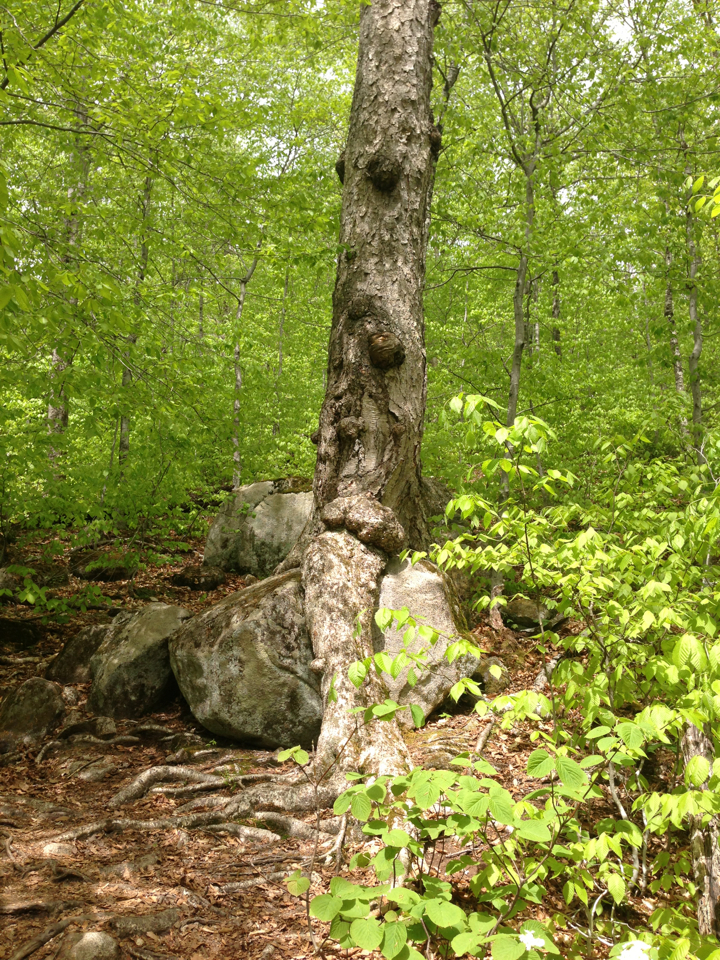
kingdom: Plantae
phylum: Tracheophyta
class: Magnoliopsida
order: Fagales
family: Betulaceae
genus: Betula
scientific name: Betula alleghaniensis
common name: Yellow birch
